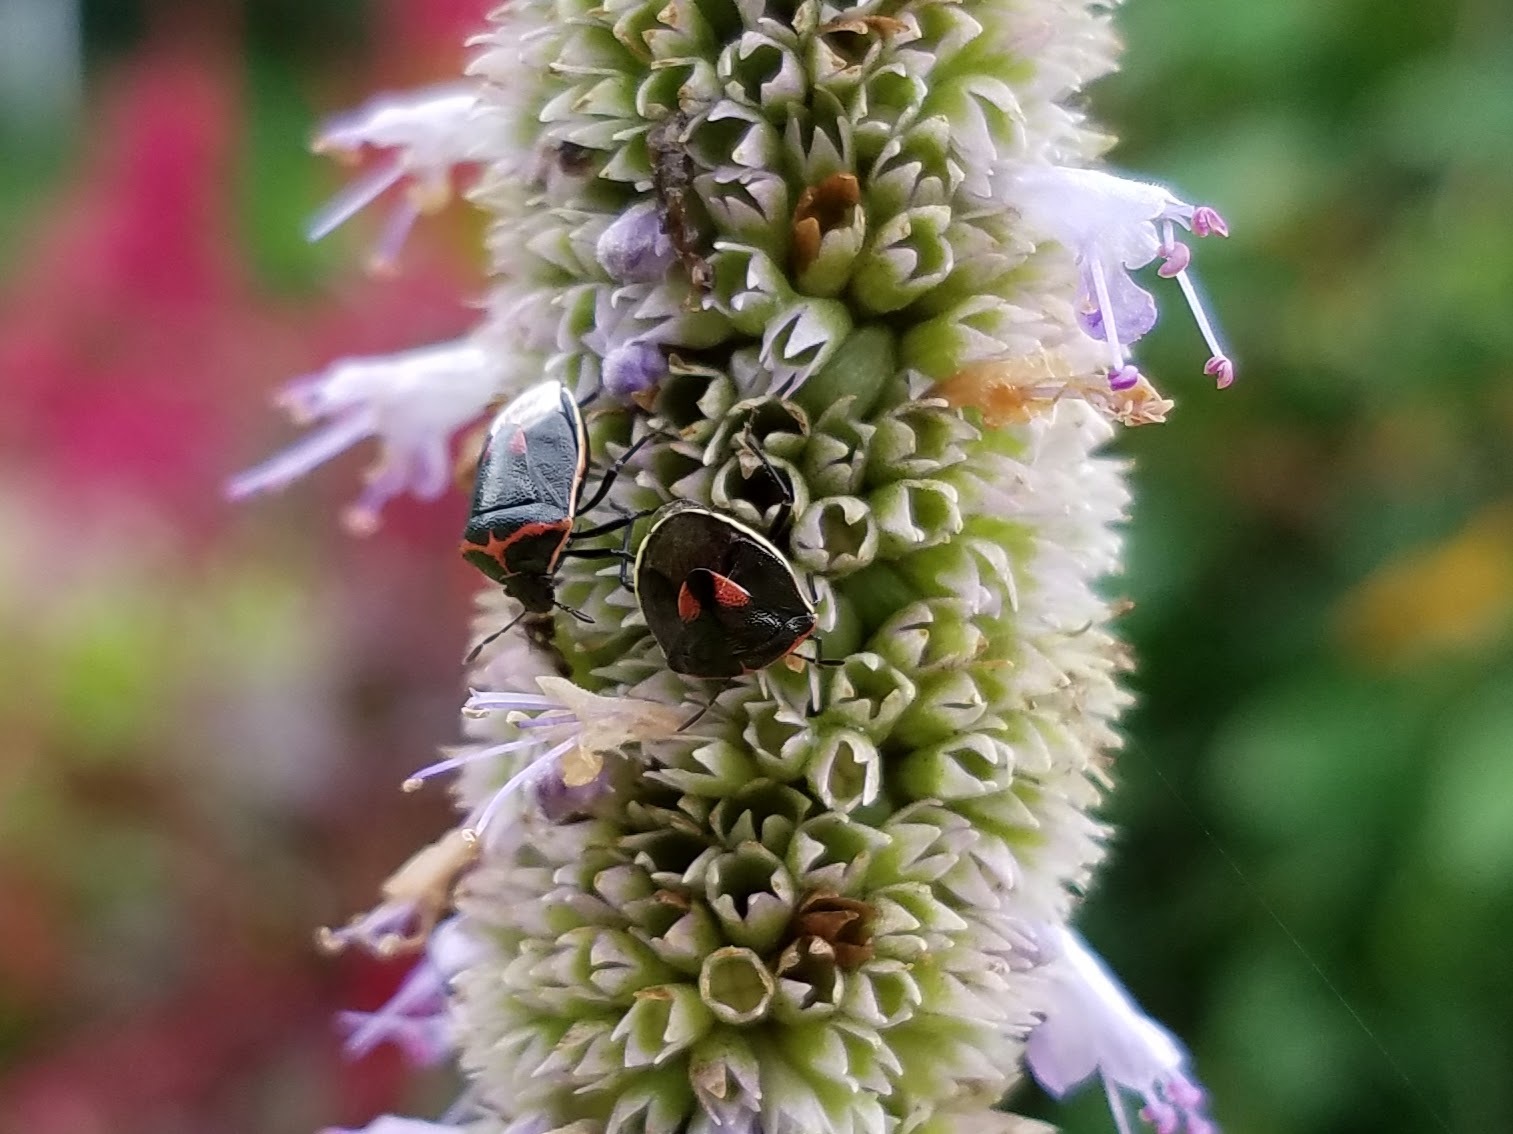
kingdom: Animalia
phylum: Arthropoda
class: Insecta
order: Hemiptera
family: Pentatomidae
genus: Cosmopepla
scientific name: Cosmopepla lintneriana
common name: Twice-stabbed stink bug
